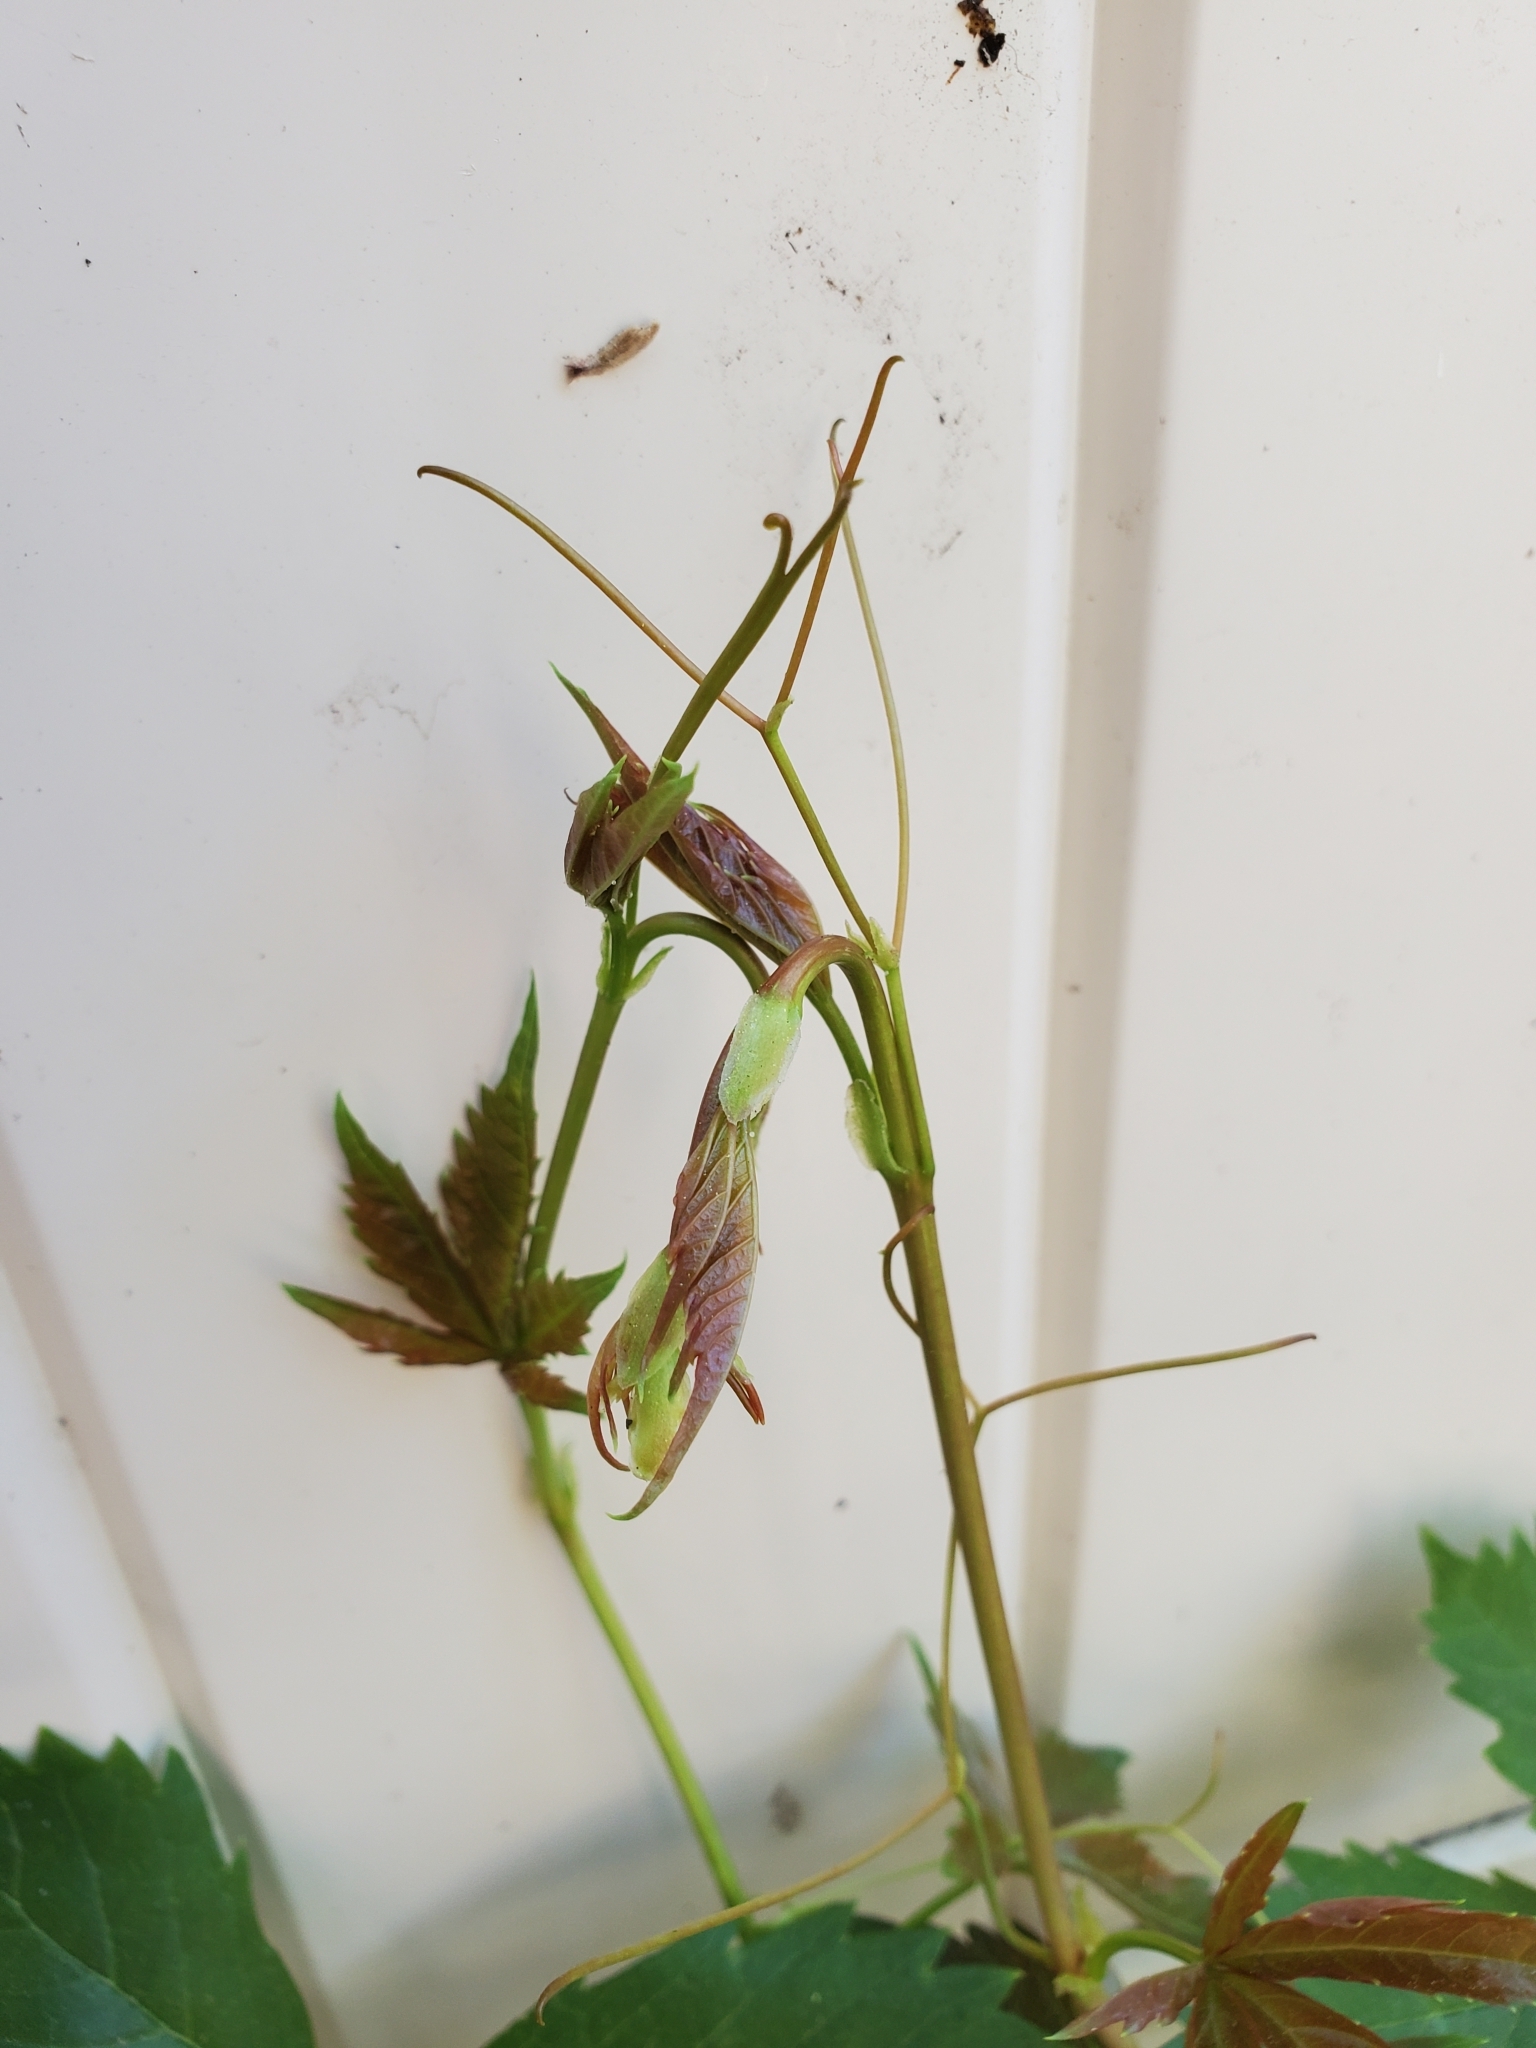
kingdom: Plantae
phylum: Tracheophyta
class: Magnoliopsida
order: Vitales
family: Vitaceae
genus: Parthenocissus
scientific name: Parthenocissus quinquefolia
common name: Virginia-creeper
